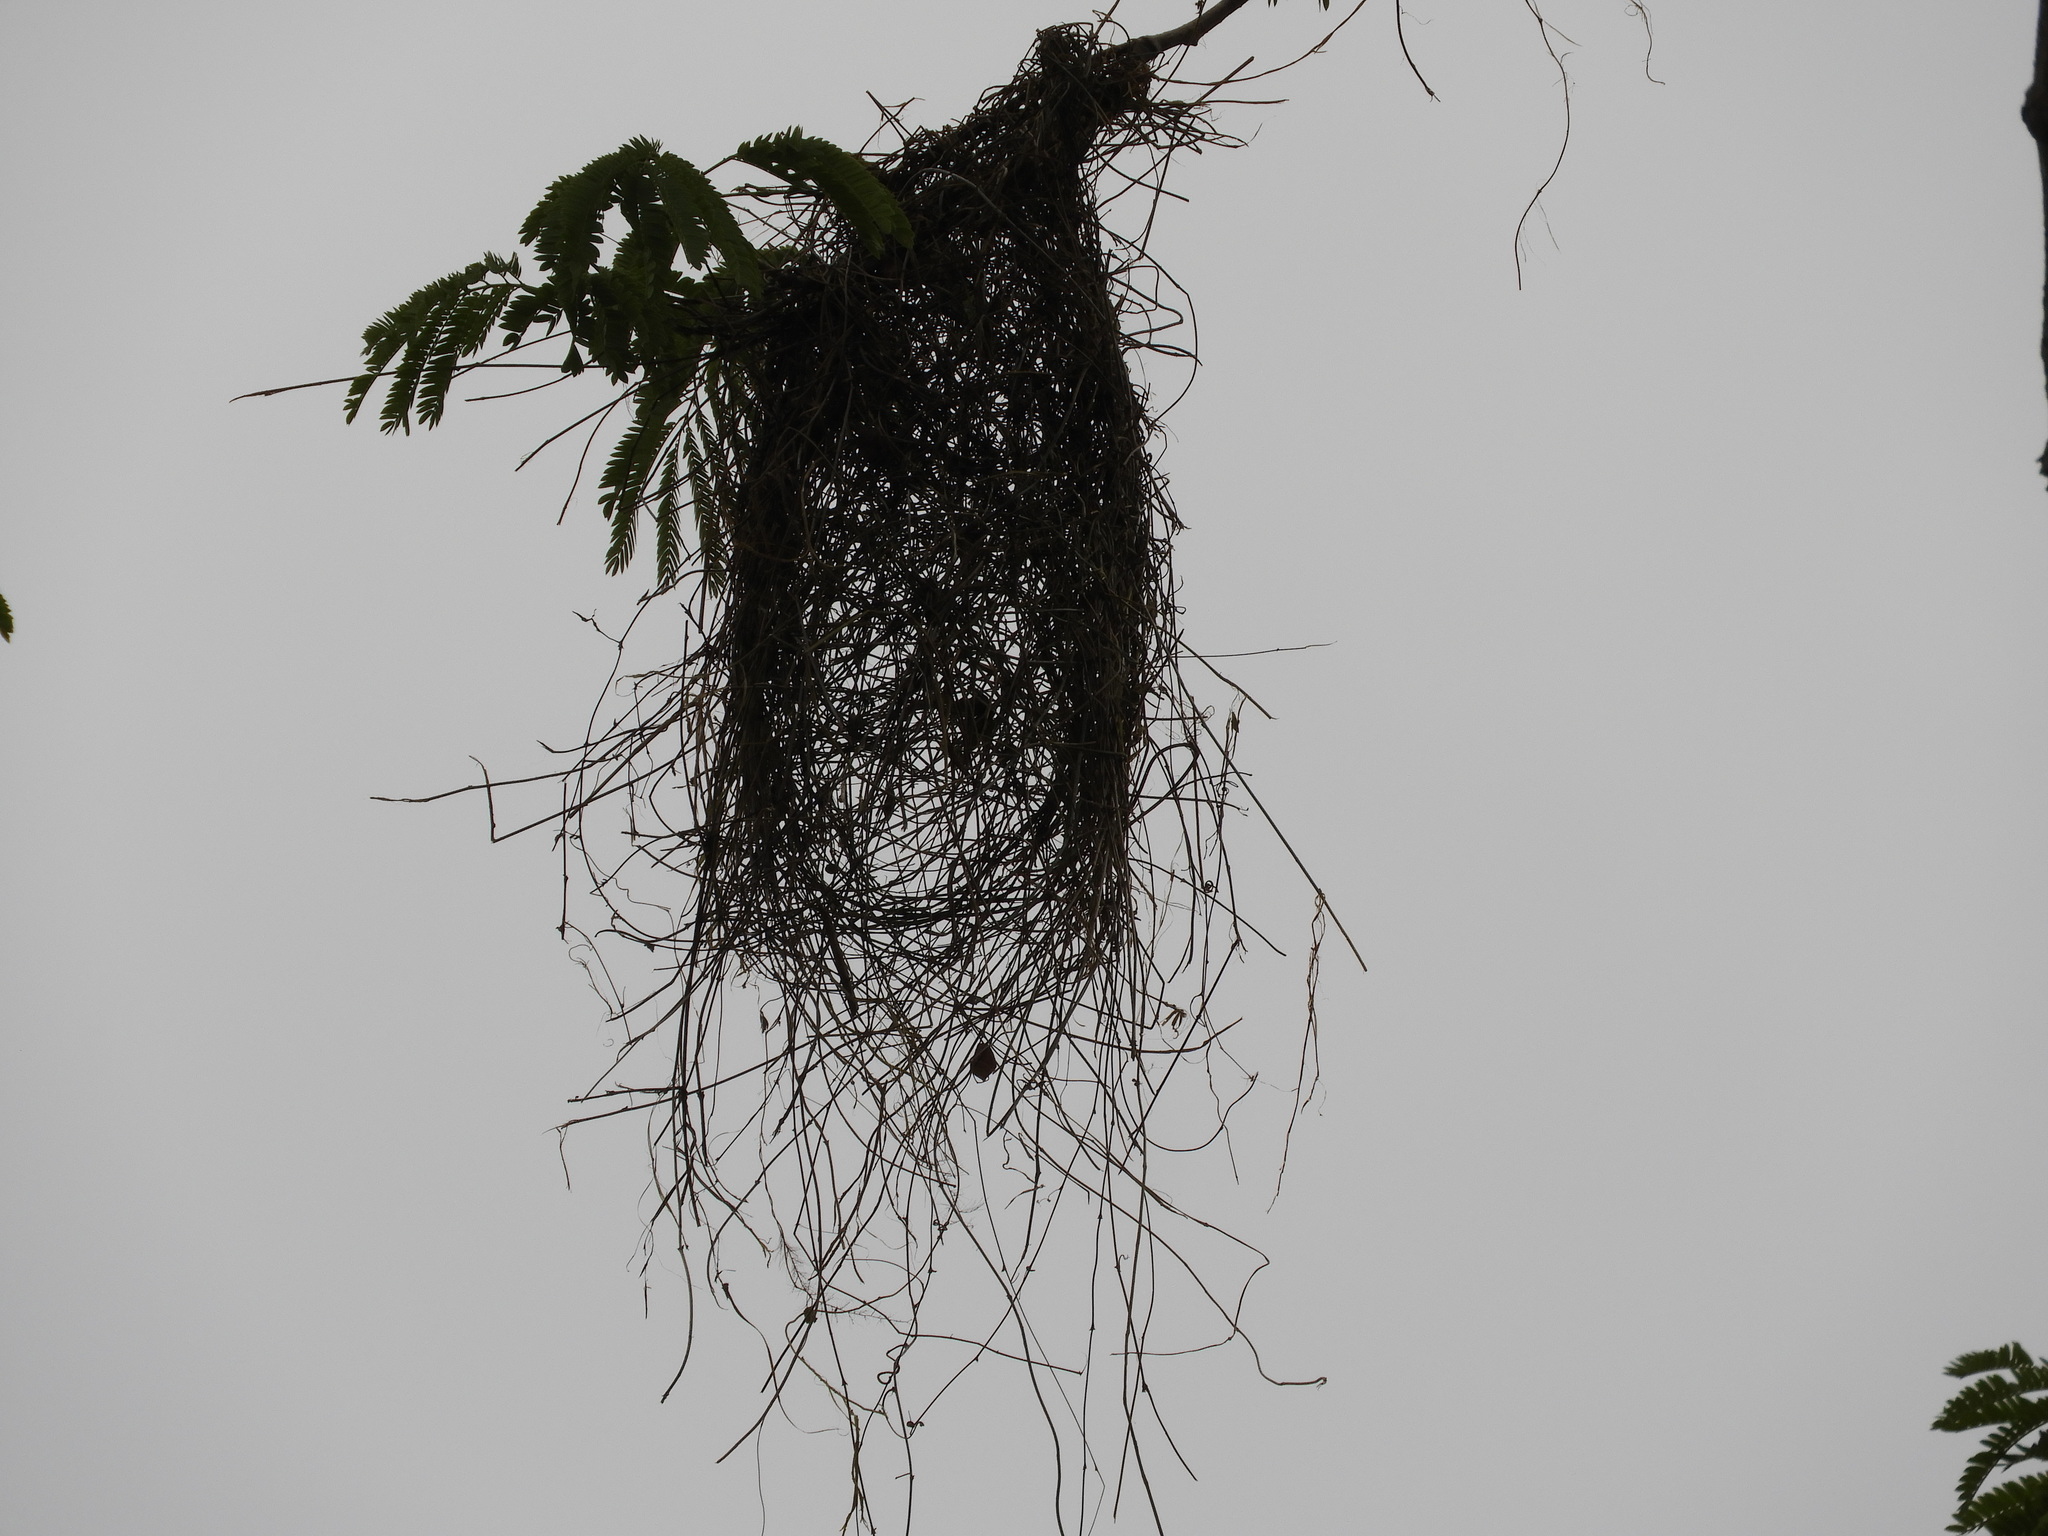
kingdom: Animalia
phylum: Chordata
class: Aves
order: Passeriformes
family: Icteridae
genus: Cacicus
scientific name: Cacicus melanicterus
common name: Yellow-winged cacique
